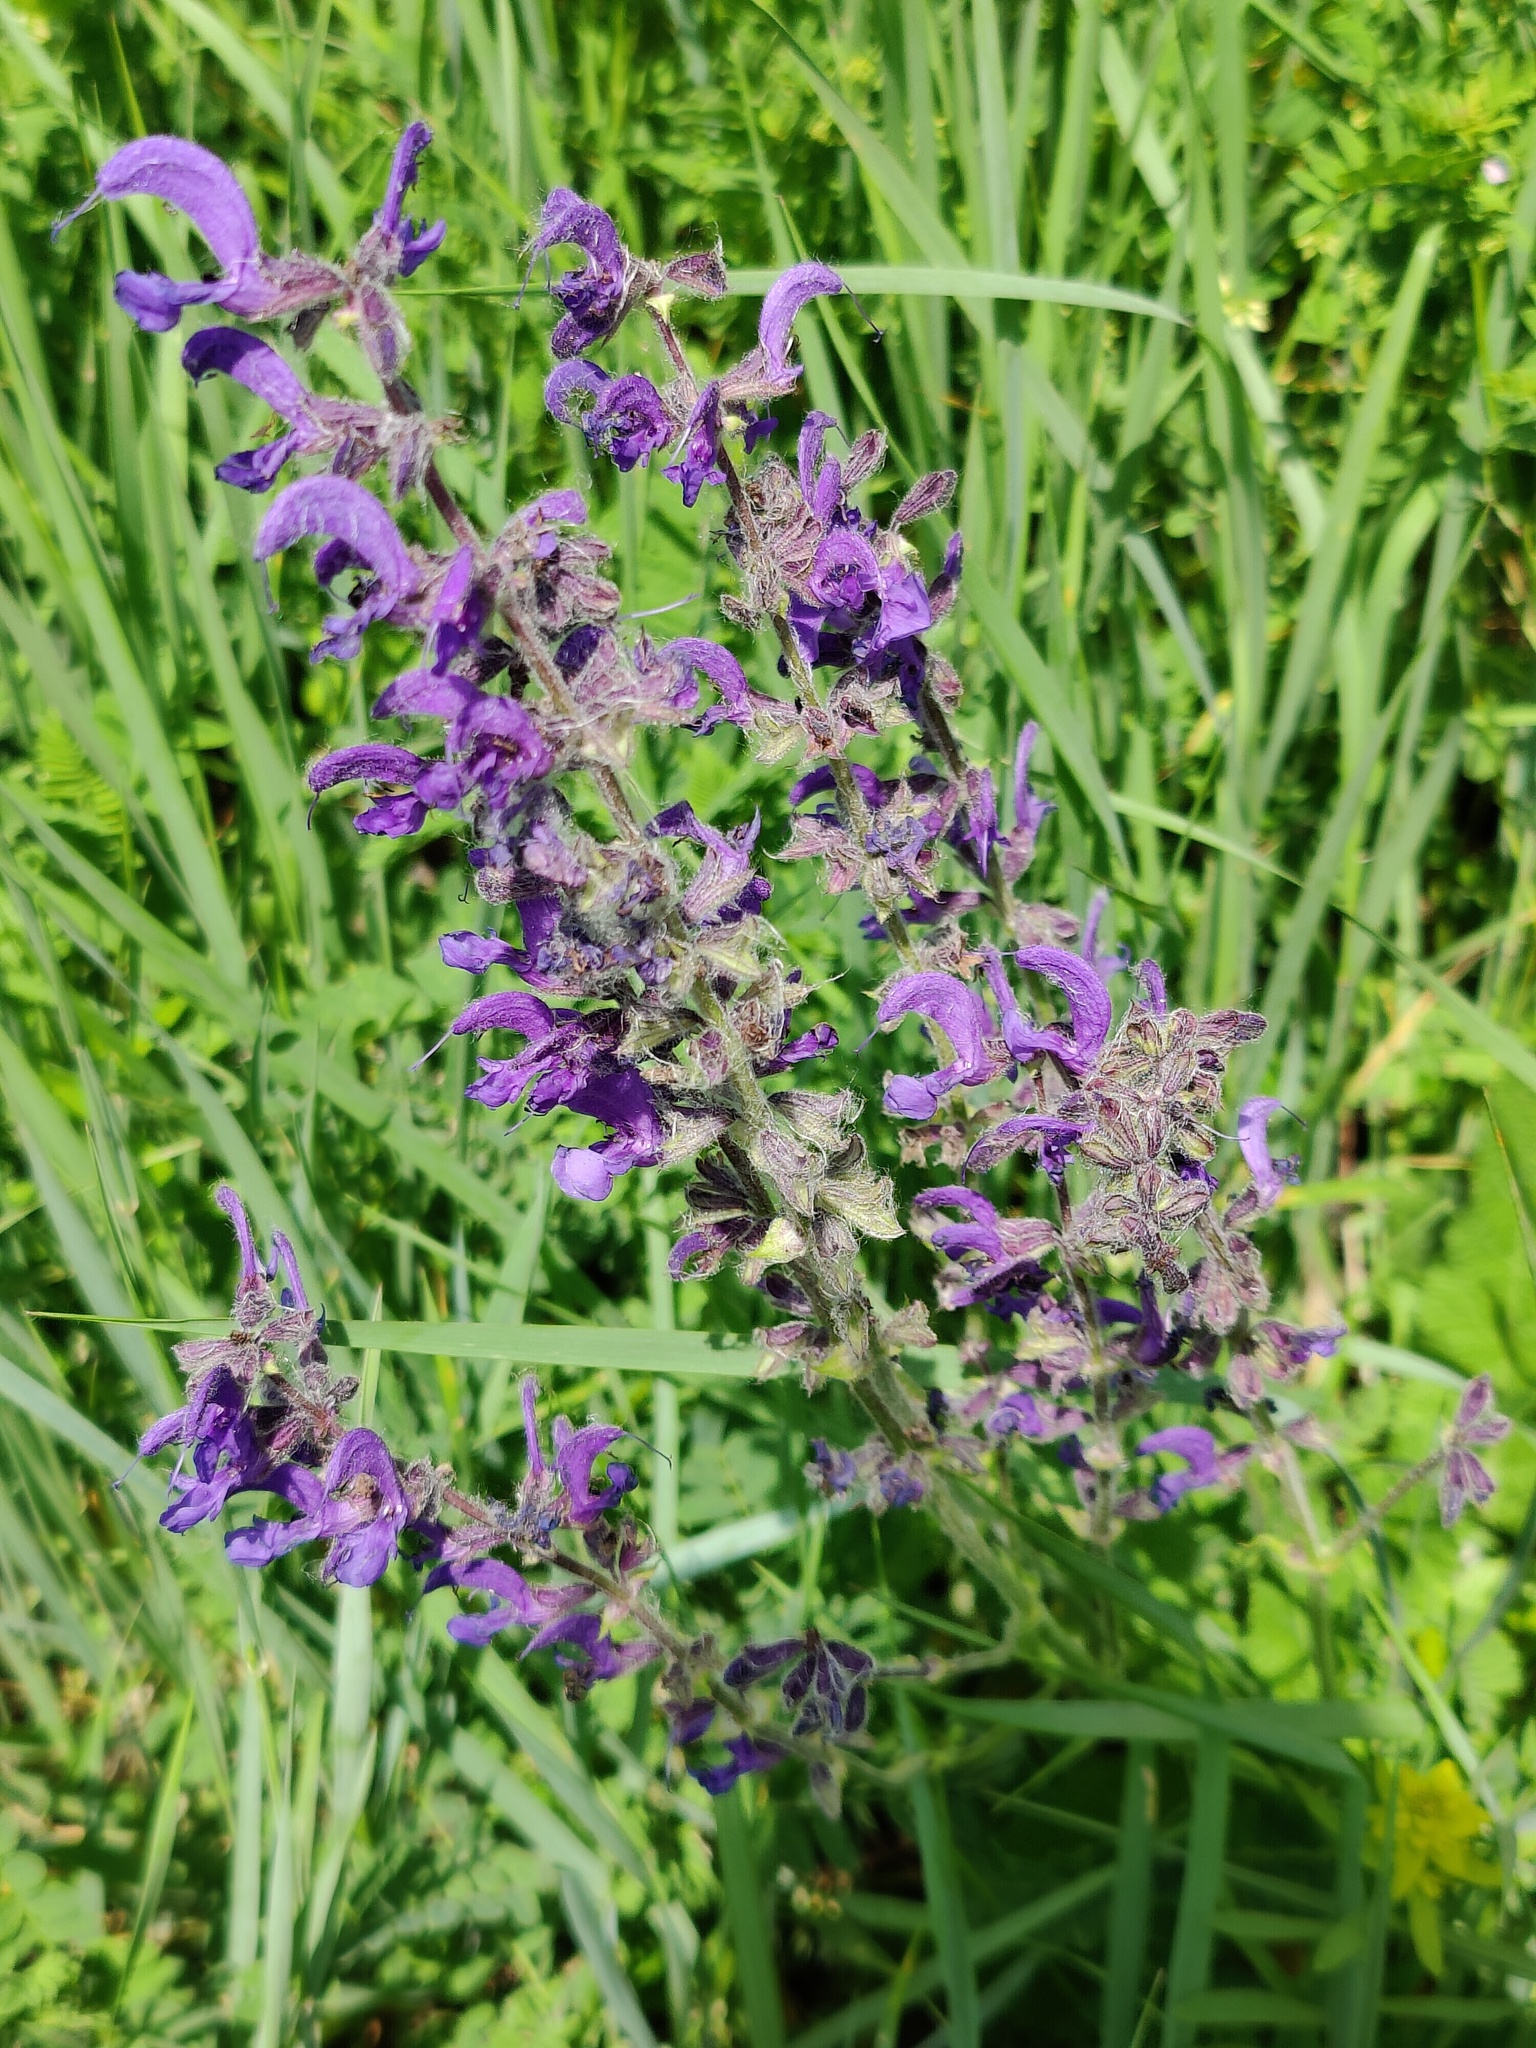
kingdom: Plantae
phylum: Tracheophyta
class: Magnoliopsida
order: Lamiales
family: Lamiaceae
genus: Salvia
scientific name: Salvia pratensis
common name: Meadow sage
